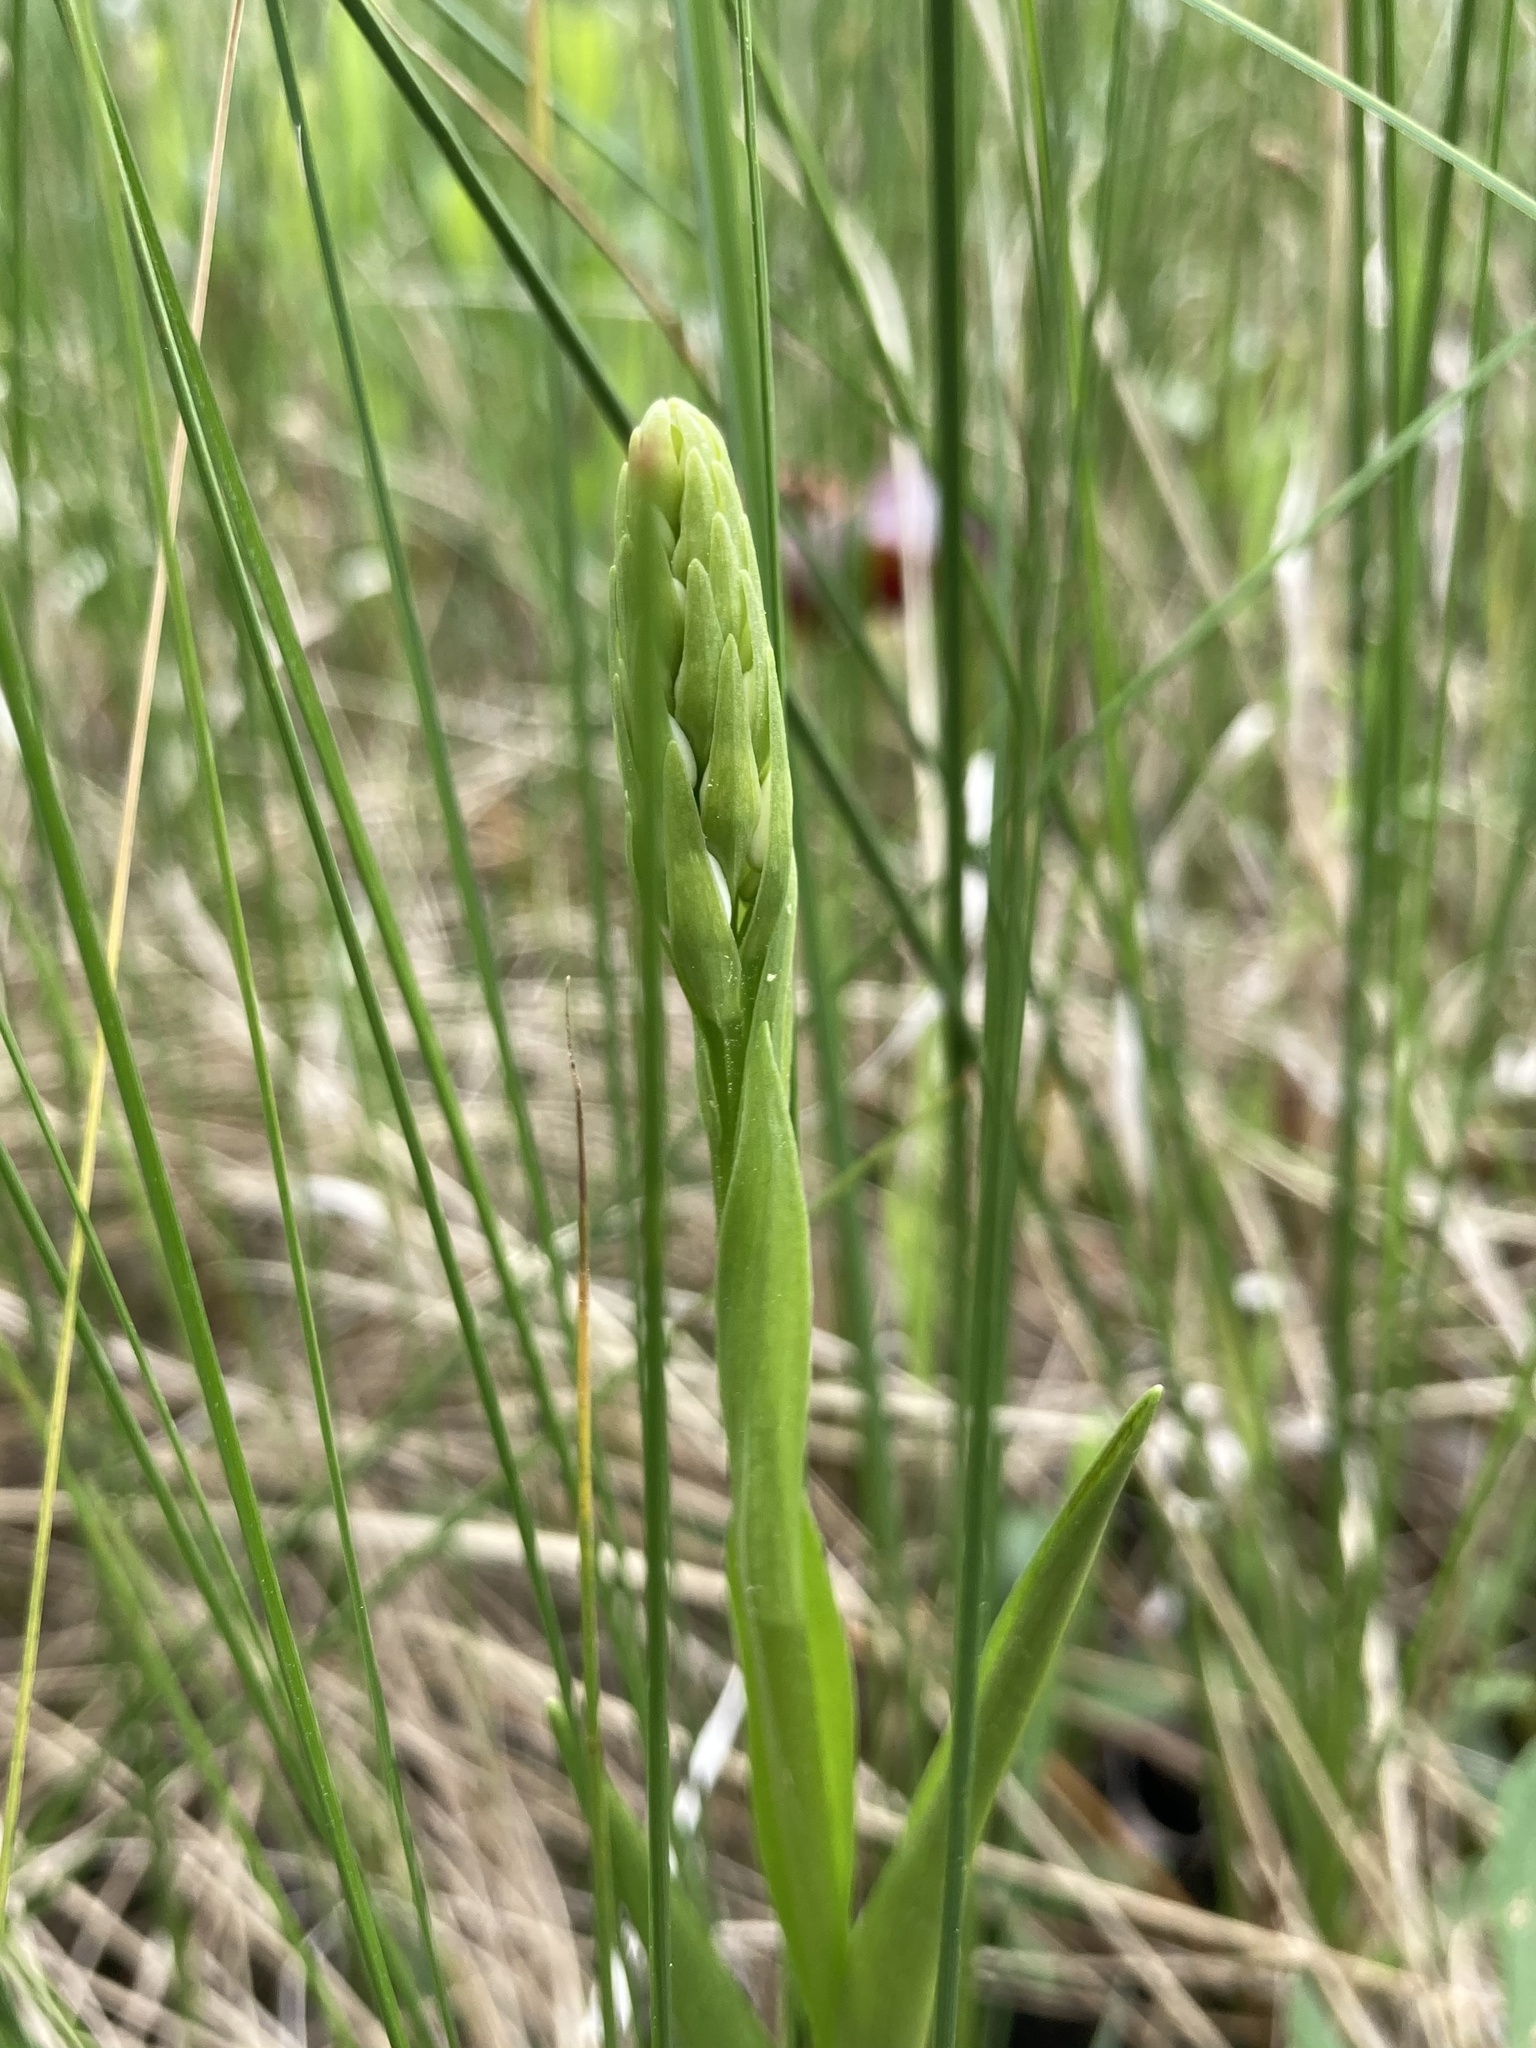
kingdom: Plantae
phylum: Tracheophyta
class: Liliopsida
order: Asparagales
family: Orchidaceae
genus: Platanthera
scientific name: Platanthera dilatata
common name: Bog candles
